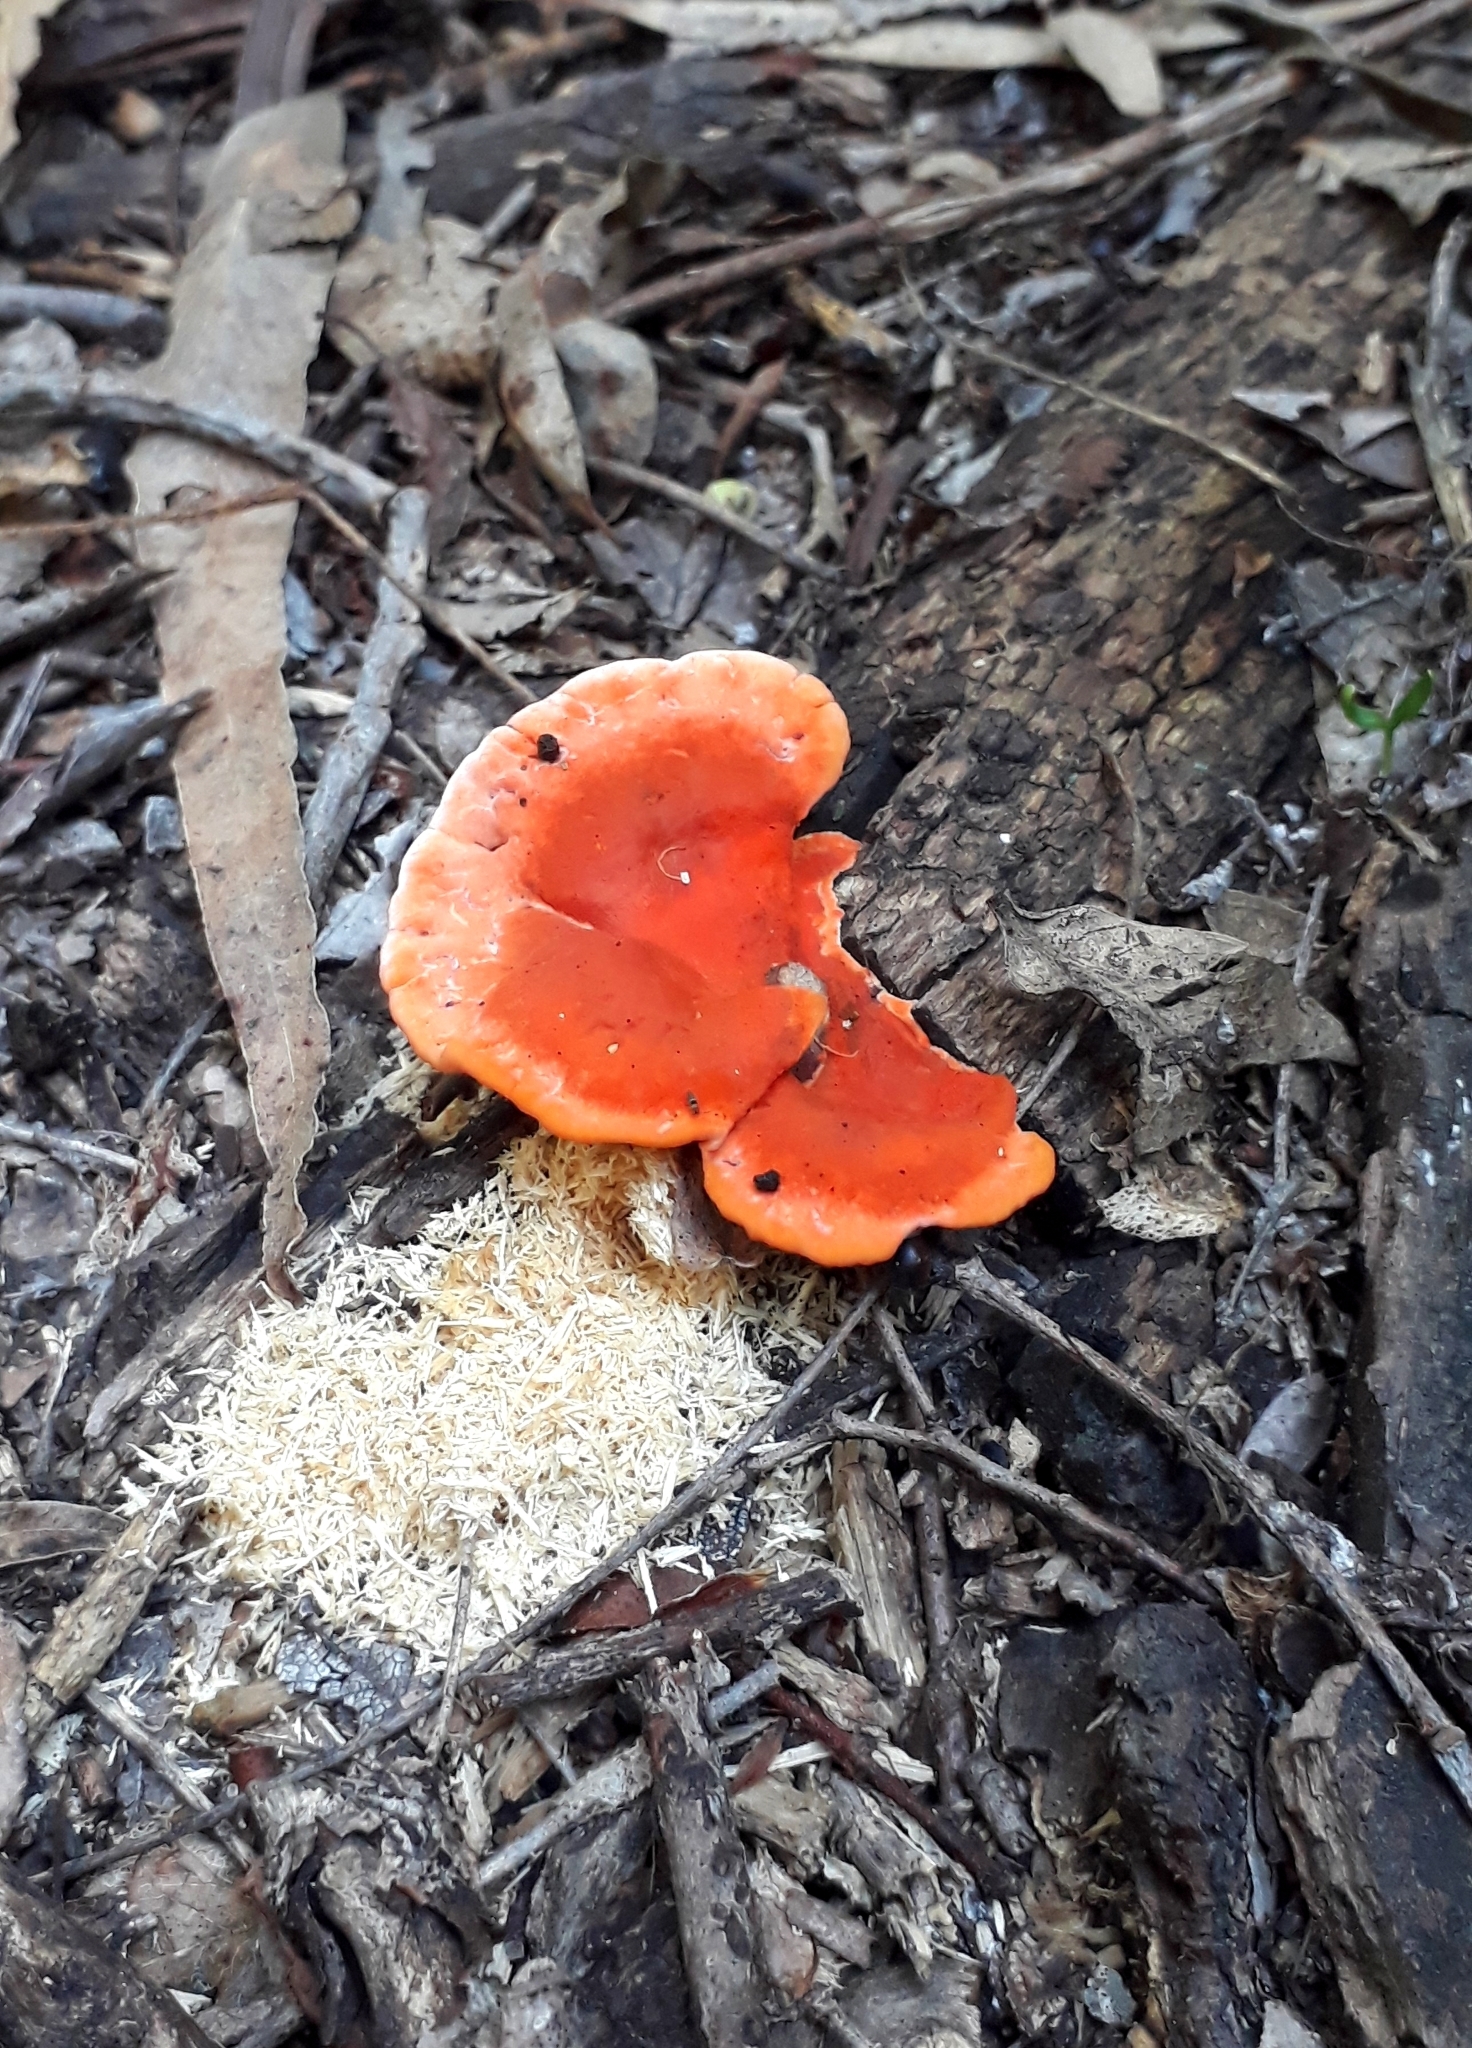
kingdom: Fungi
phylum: Basidiomycota
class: Agaricomycetes
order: Polyporales
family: Polyporaceae
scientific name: Polyporaceae
